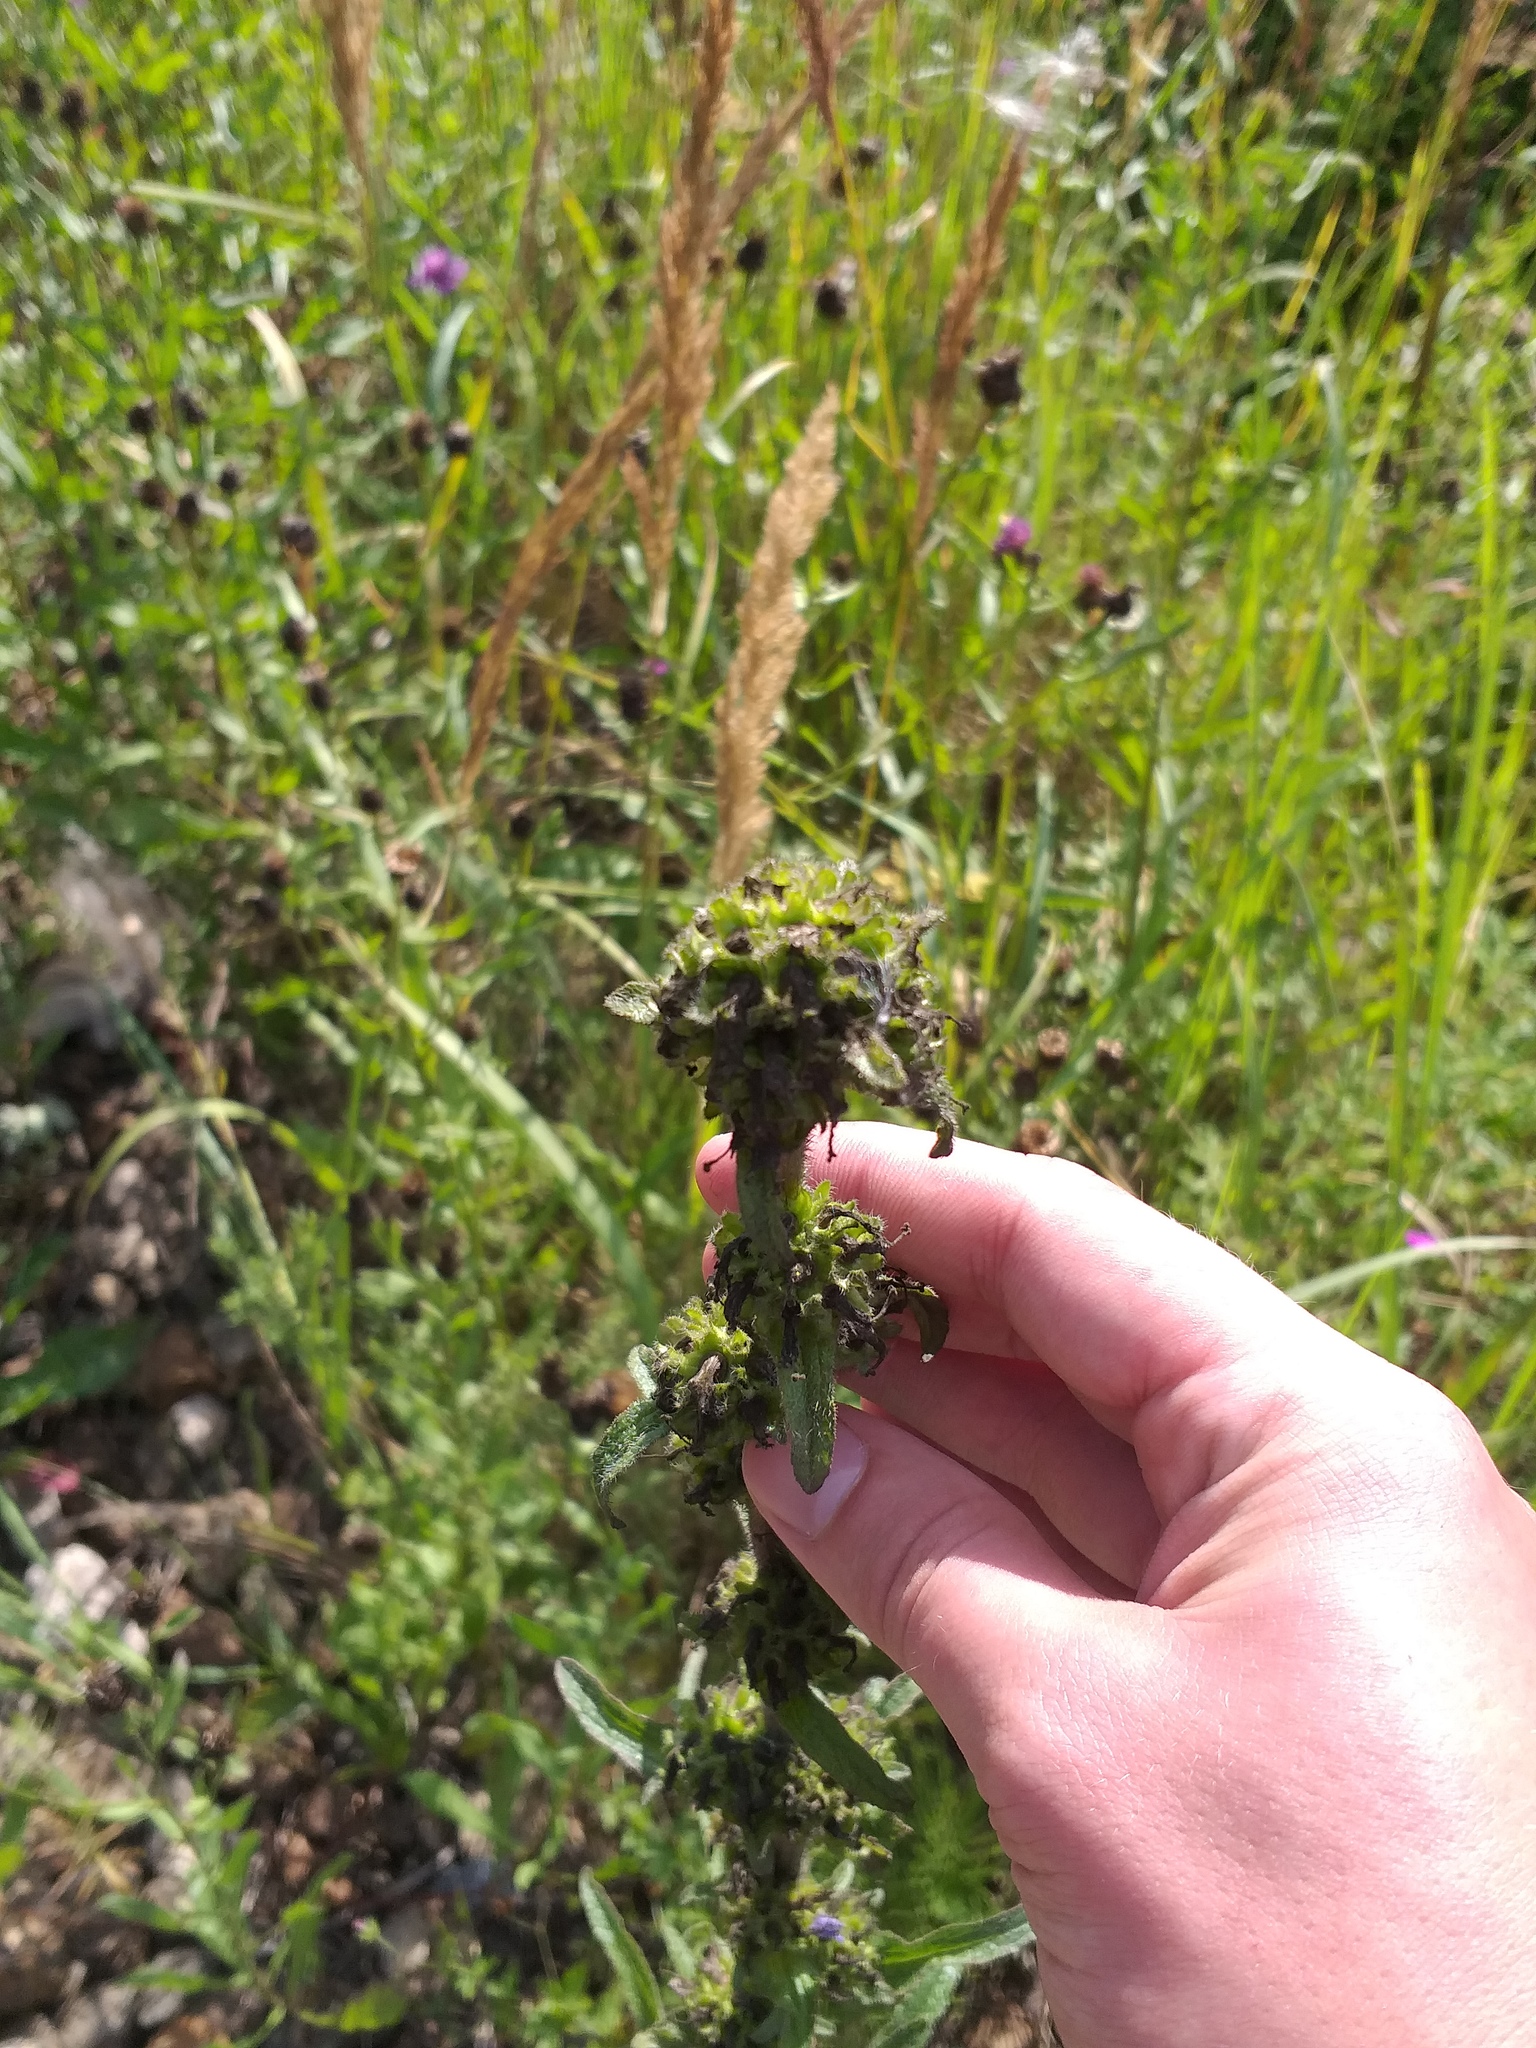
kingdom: Plantae
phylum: Tracheophyta
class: Magnoliopsida
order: Asterales
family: Campanulaceae
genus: Campanula
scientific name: Campanula cervicaria
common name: Bristly bellflower
